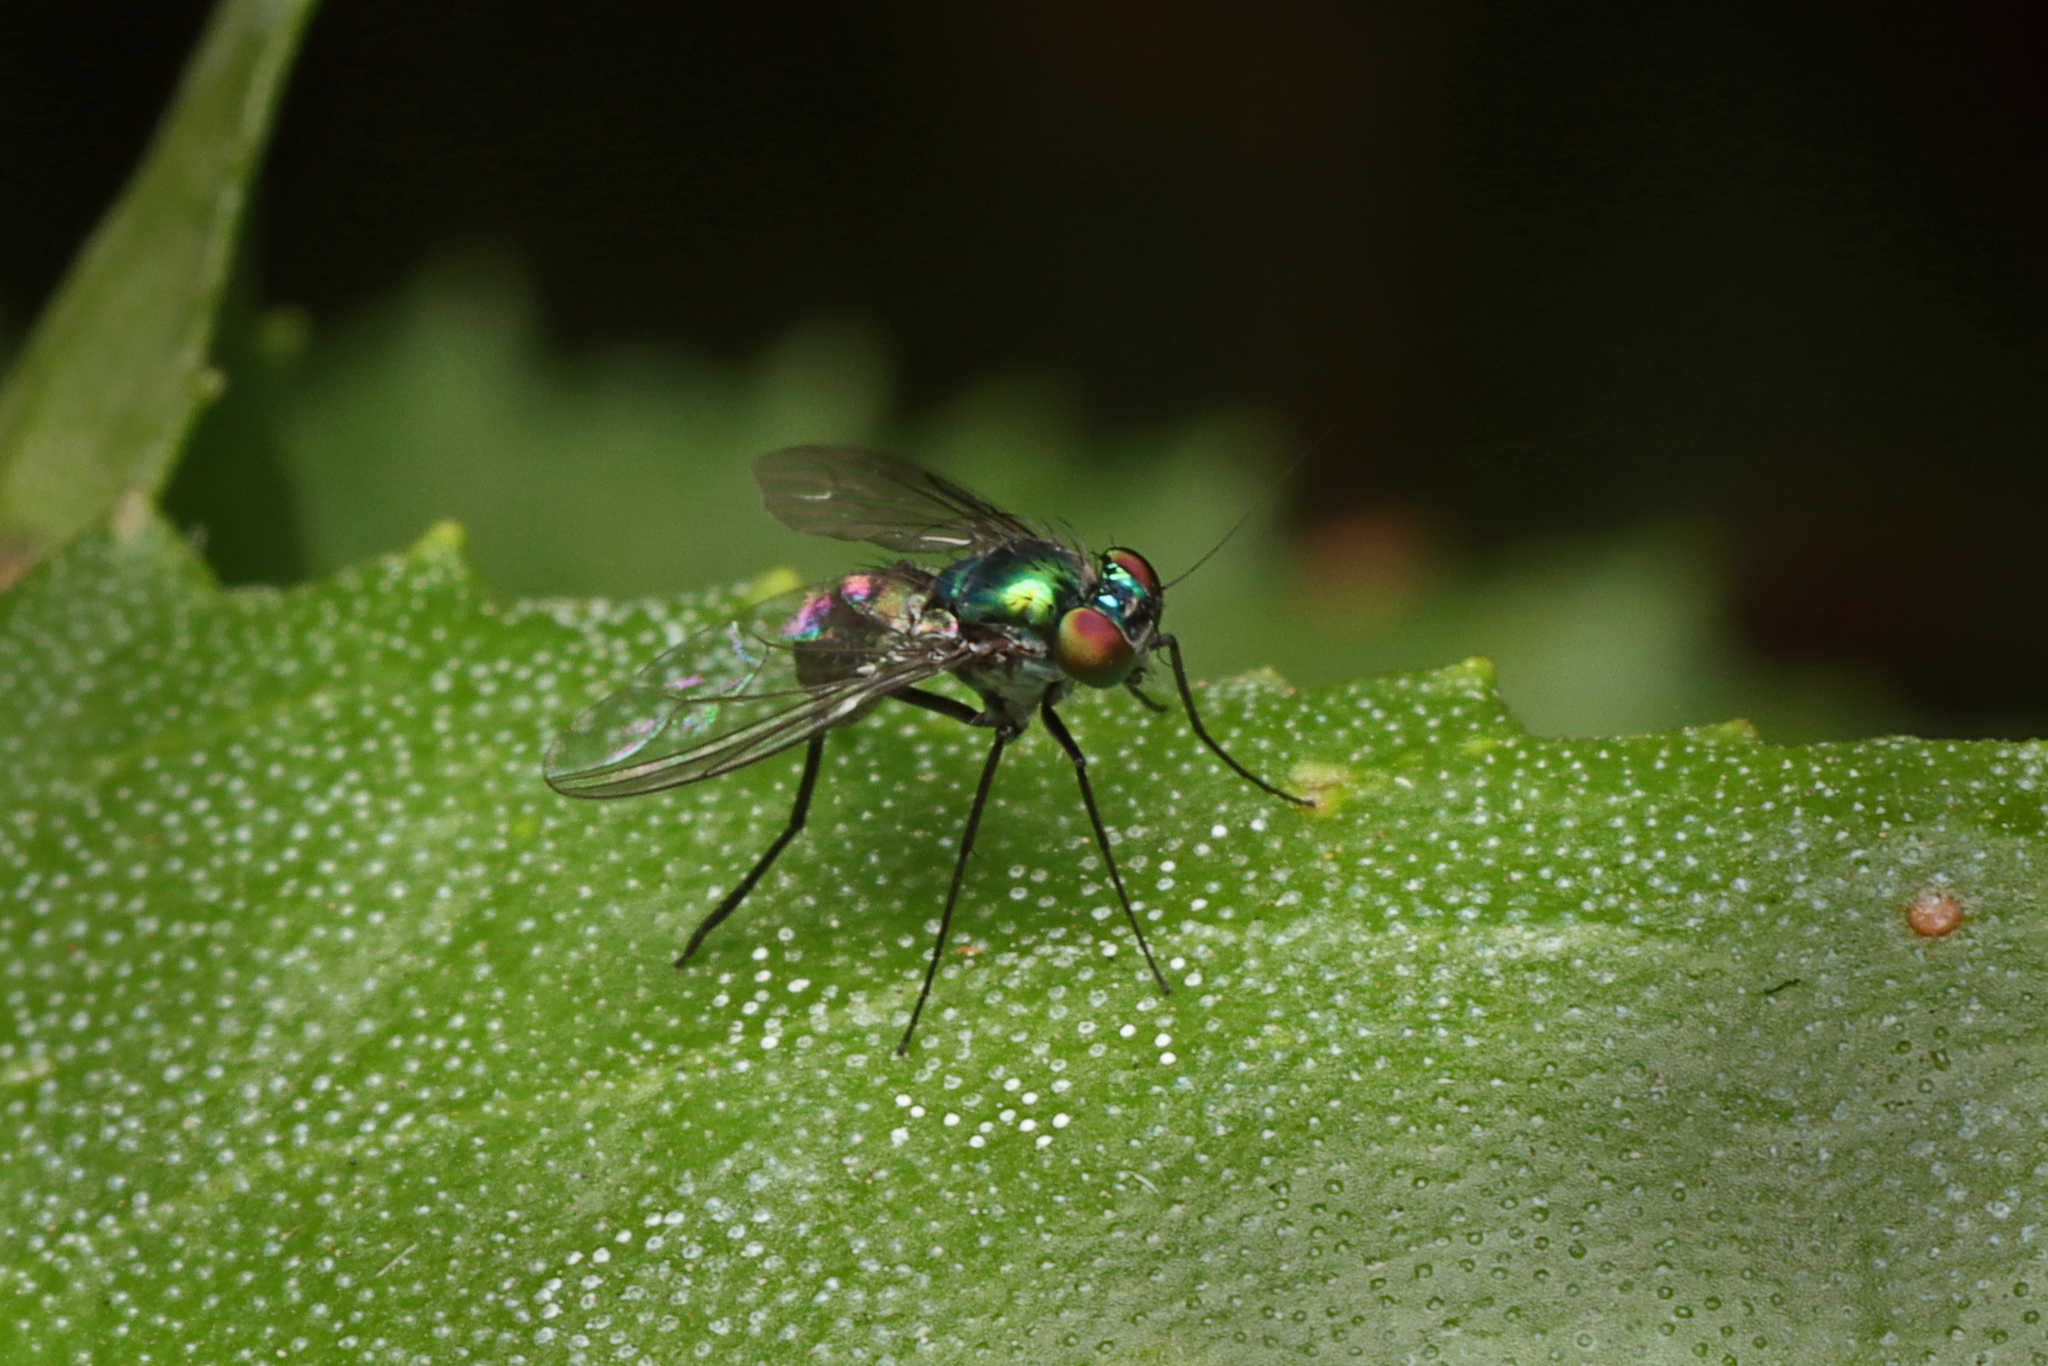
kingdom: Animalia
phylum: Arthropoda
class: Insecta
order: Diptera
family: Dolichopodidae
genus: Parentia
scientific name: Parentia vulgaris
